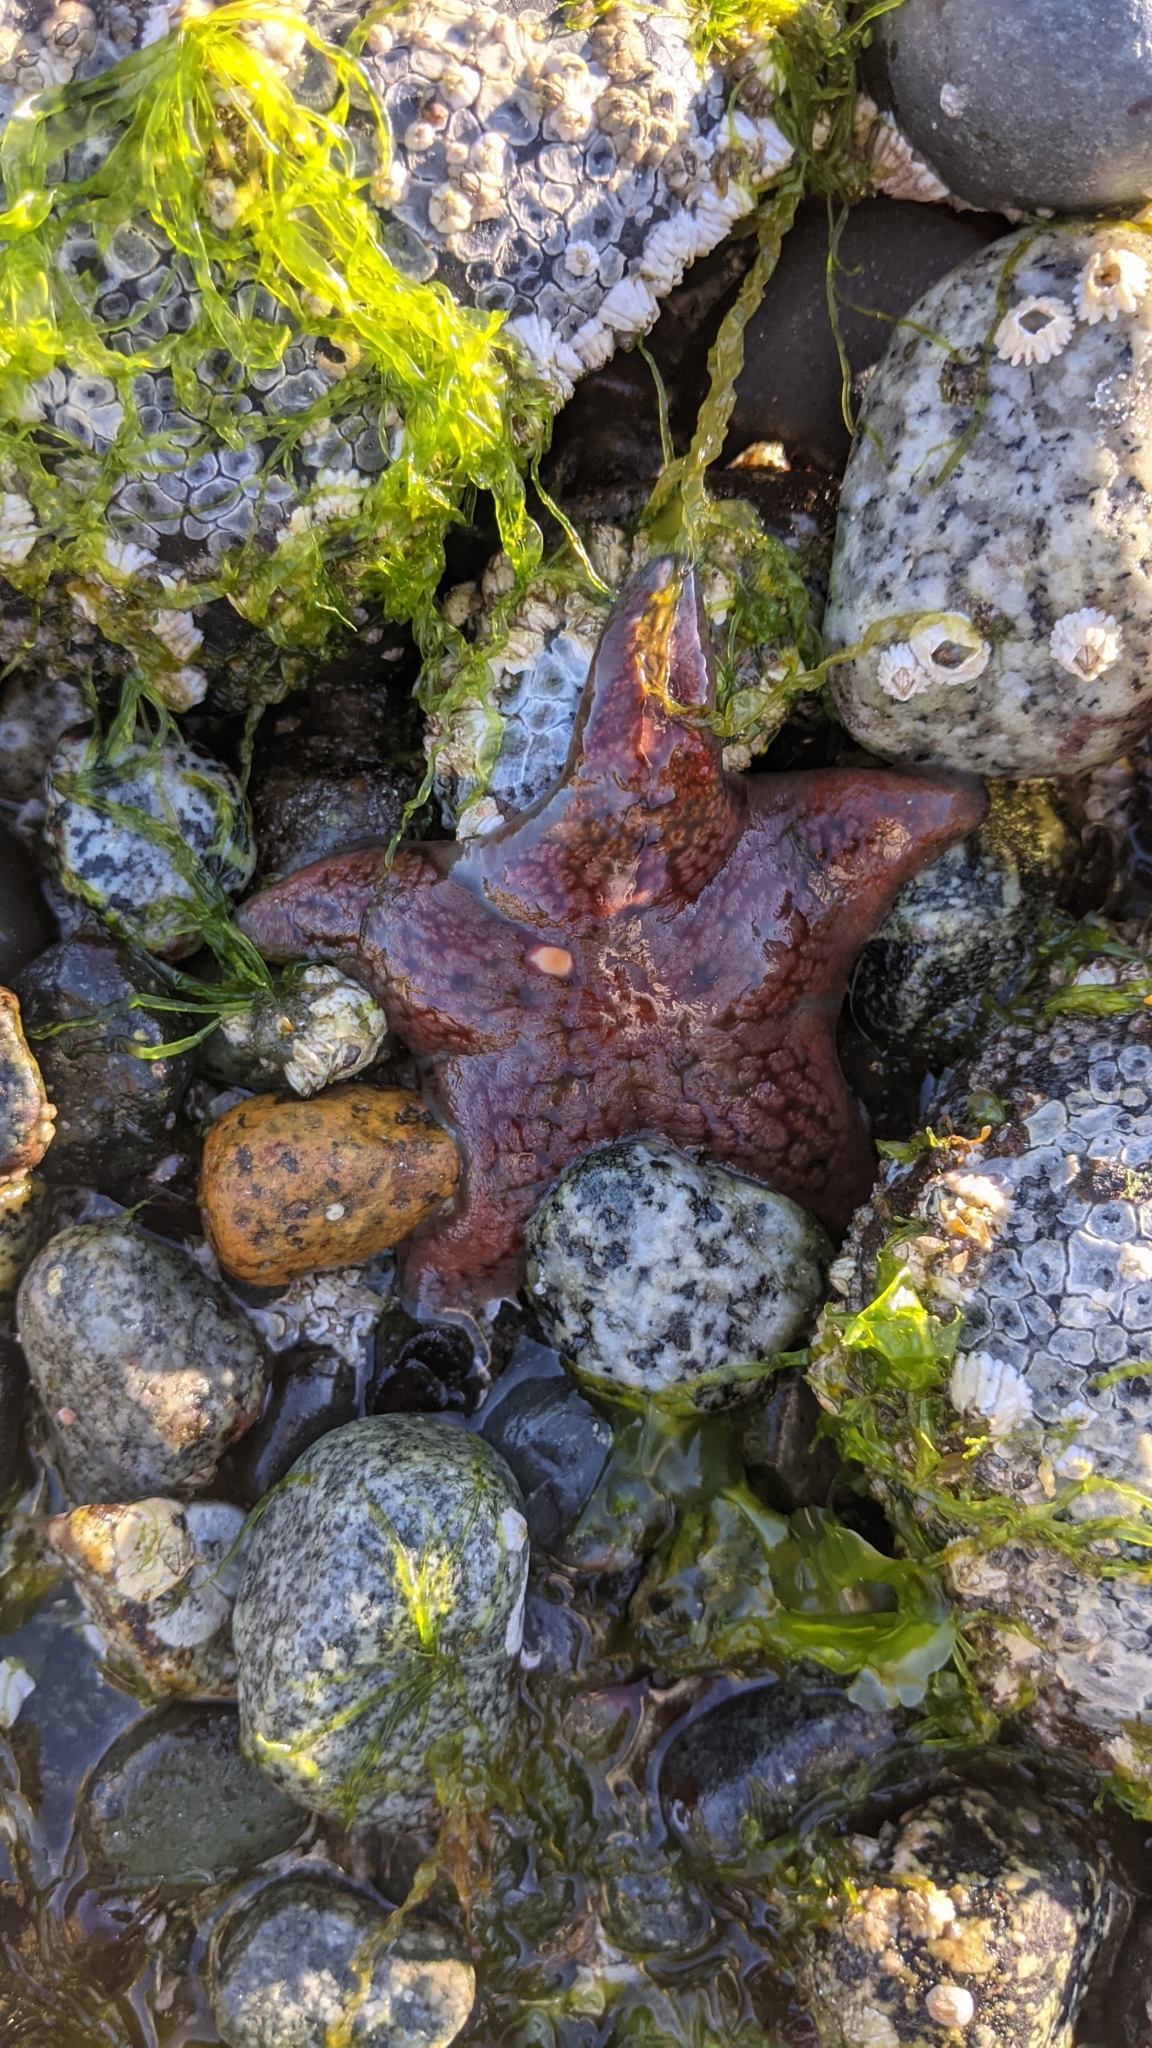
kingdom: Animalia
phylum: Echinodermata
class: Asteroidea
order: Valvatida
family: Asteropseidae
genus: Dermasterias
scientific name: Dermasterias imbricata
